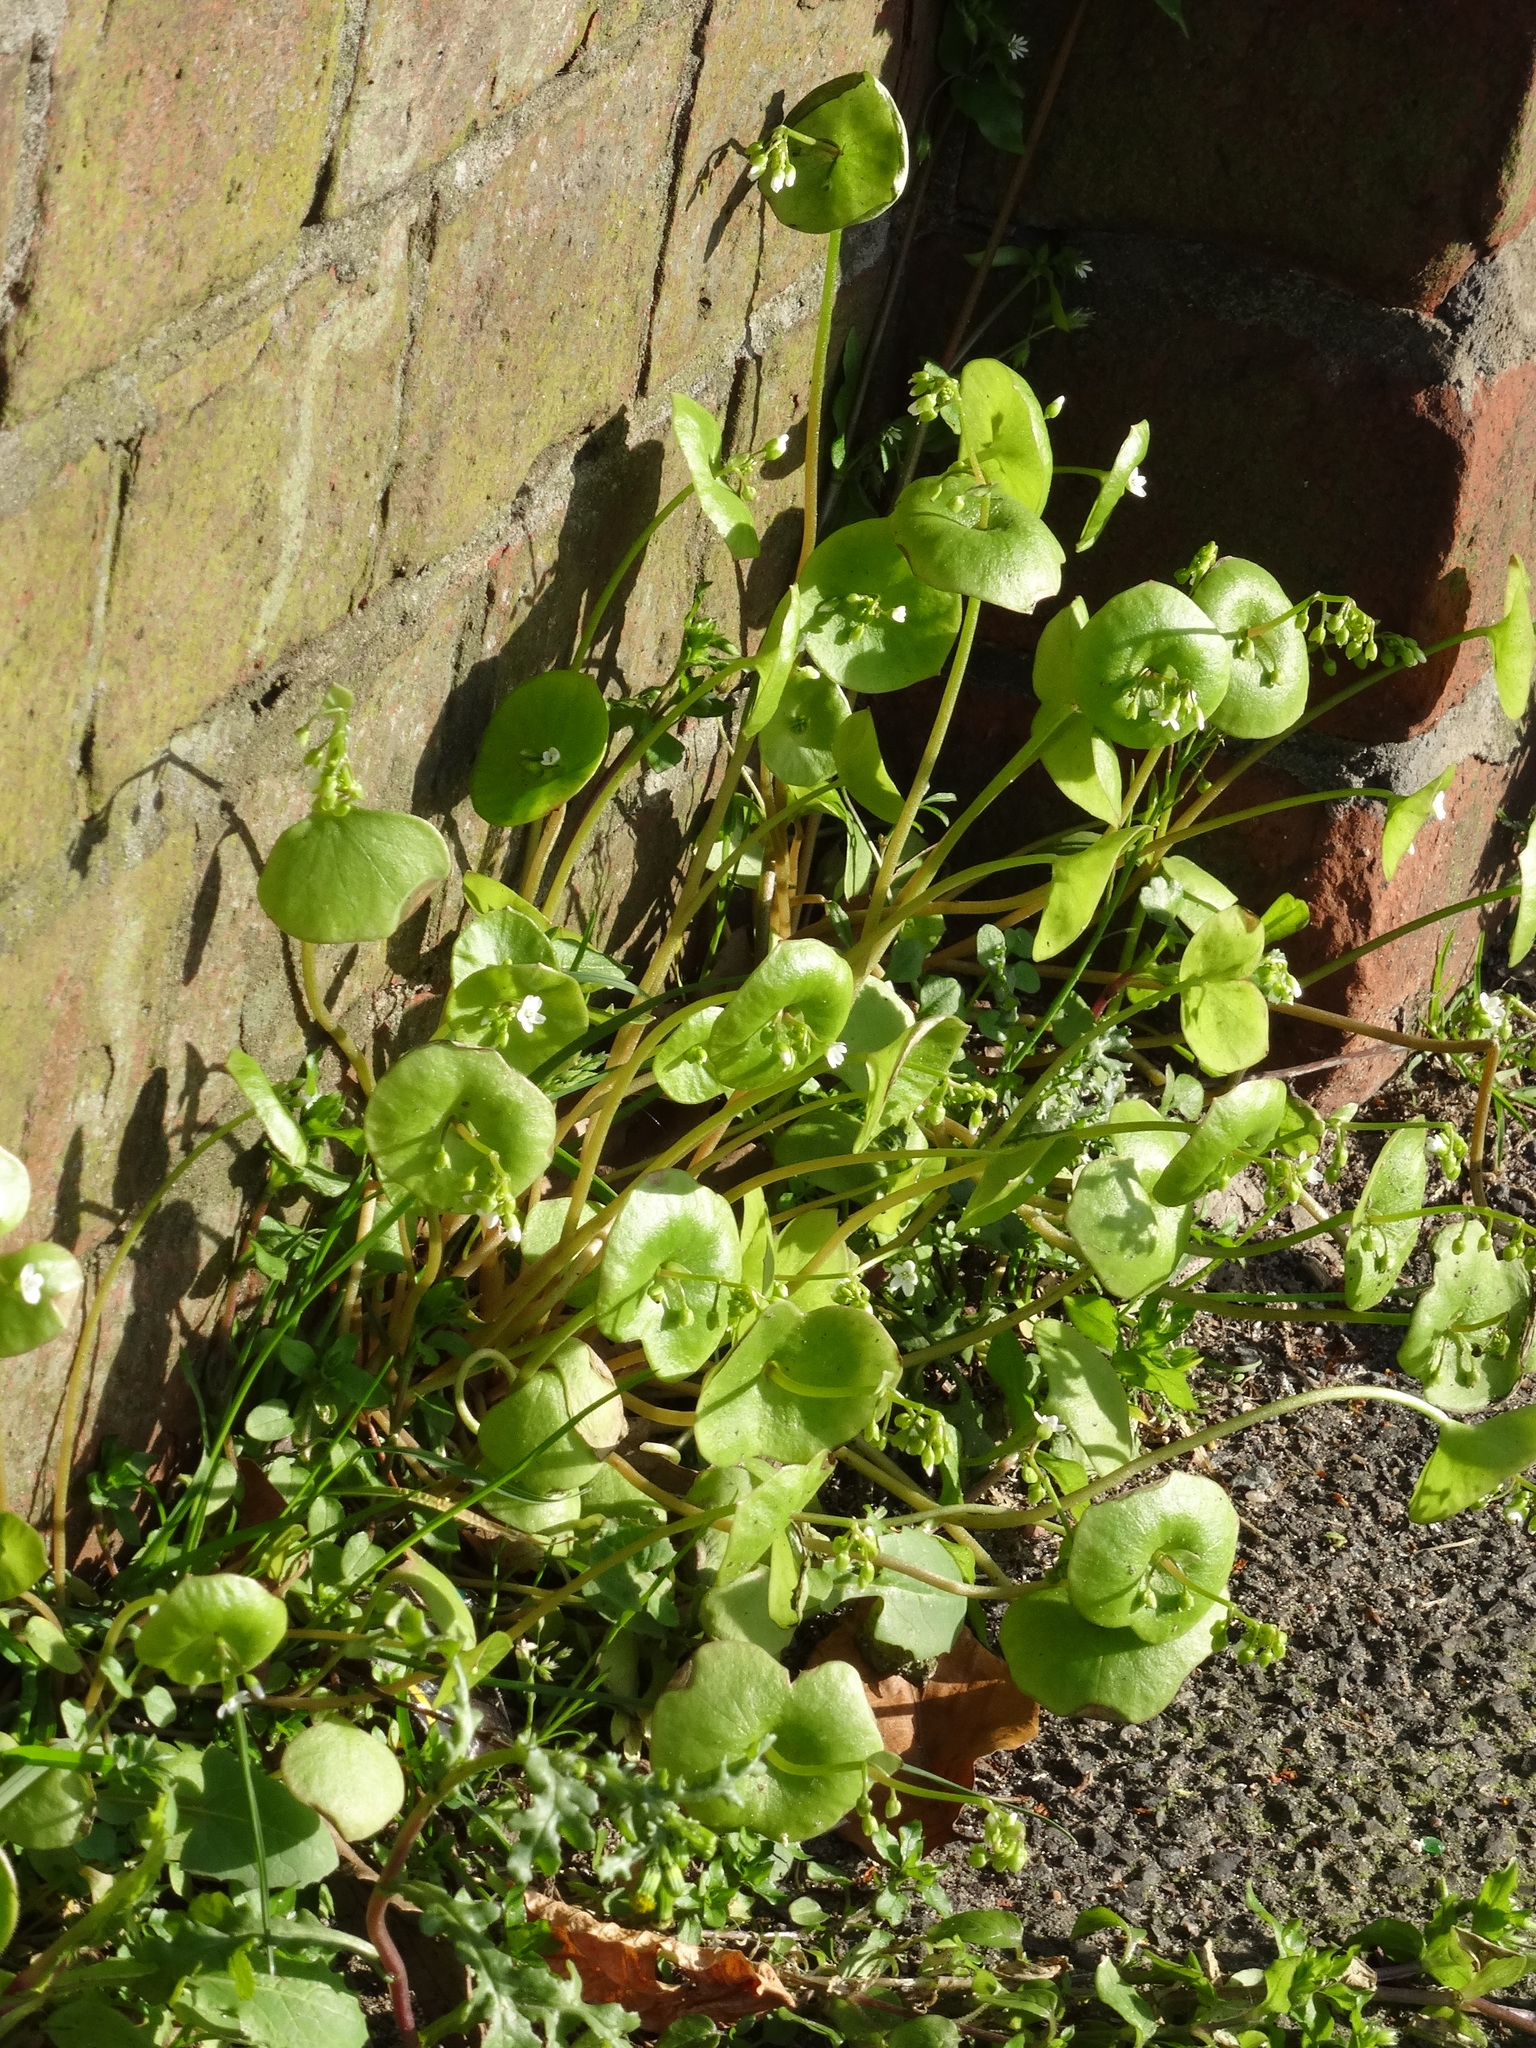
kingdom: Plantae
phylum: Tracheophyta
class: Magnoliopsida
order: Caryophyllales
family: Montiaceae
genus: Claytonia
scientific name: Claytonia perfoliata
